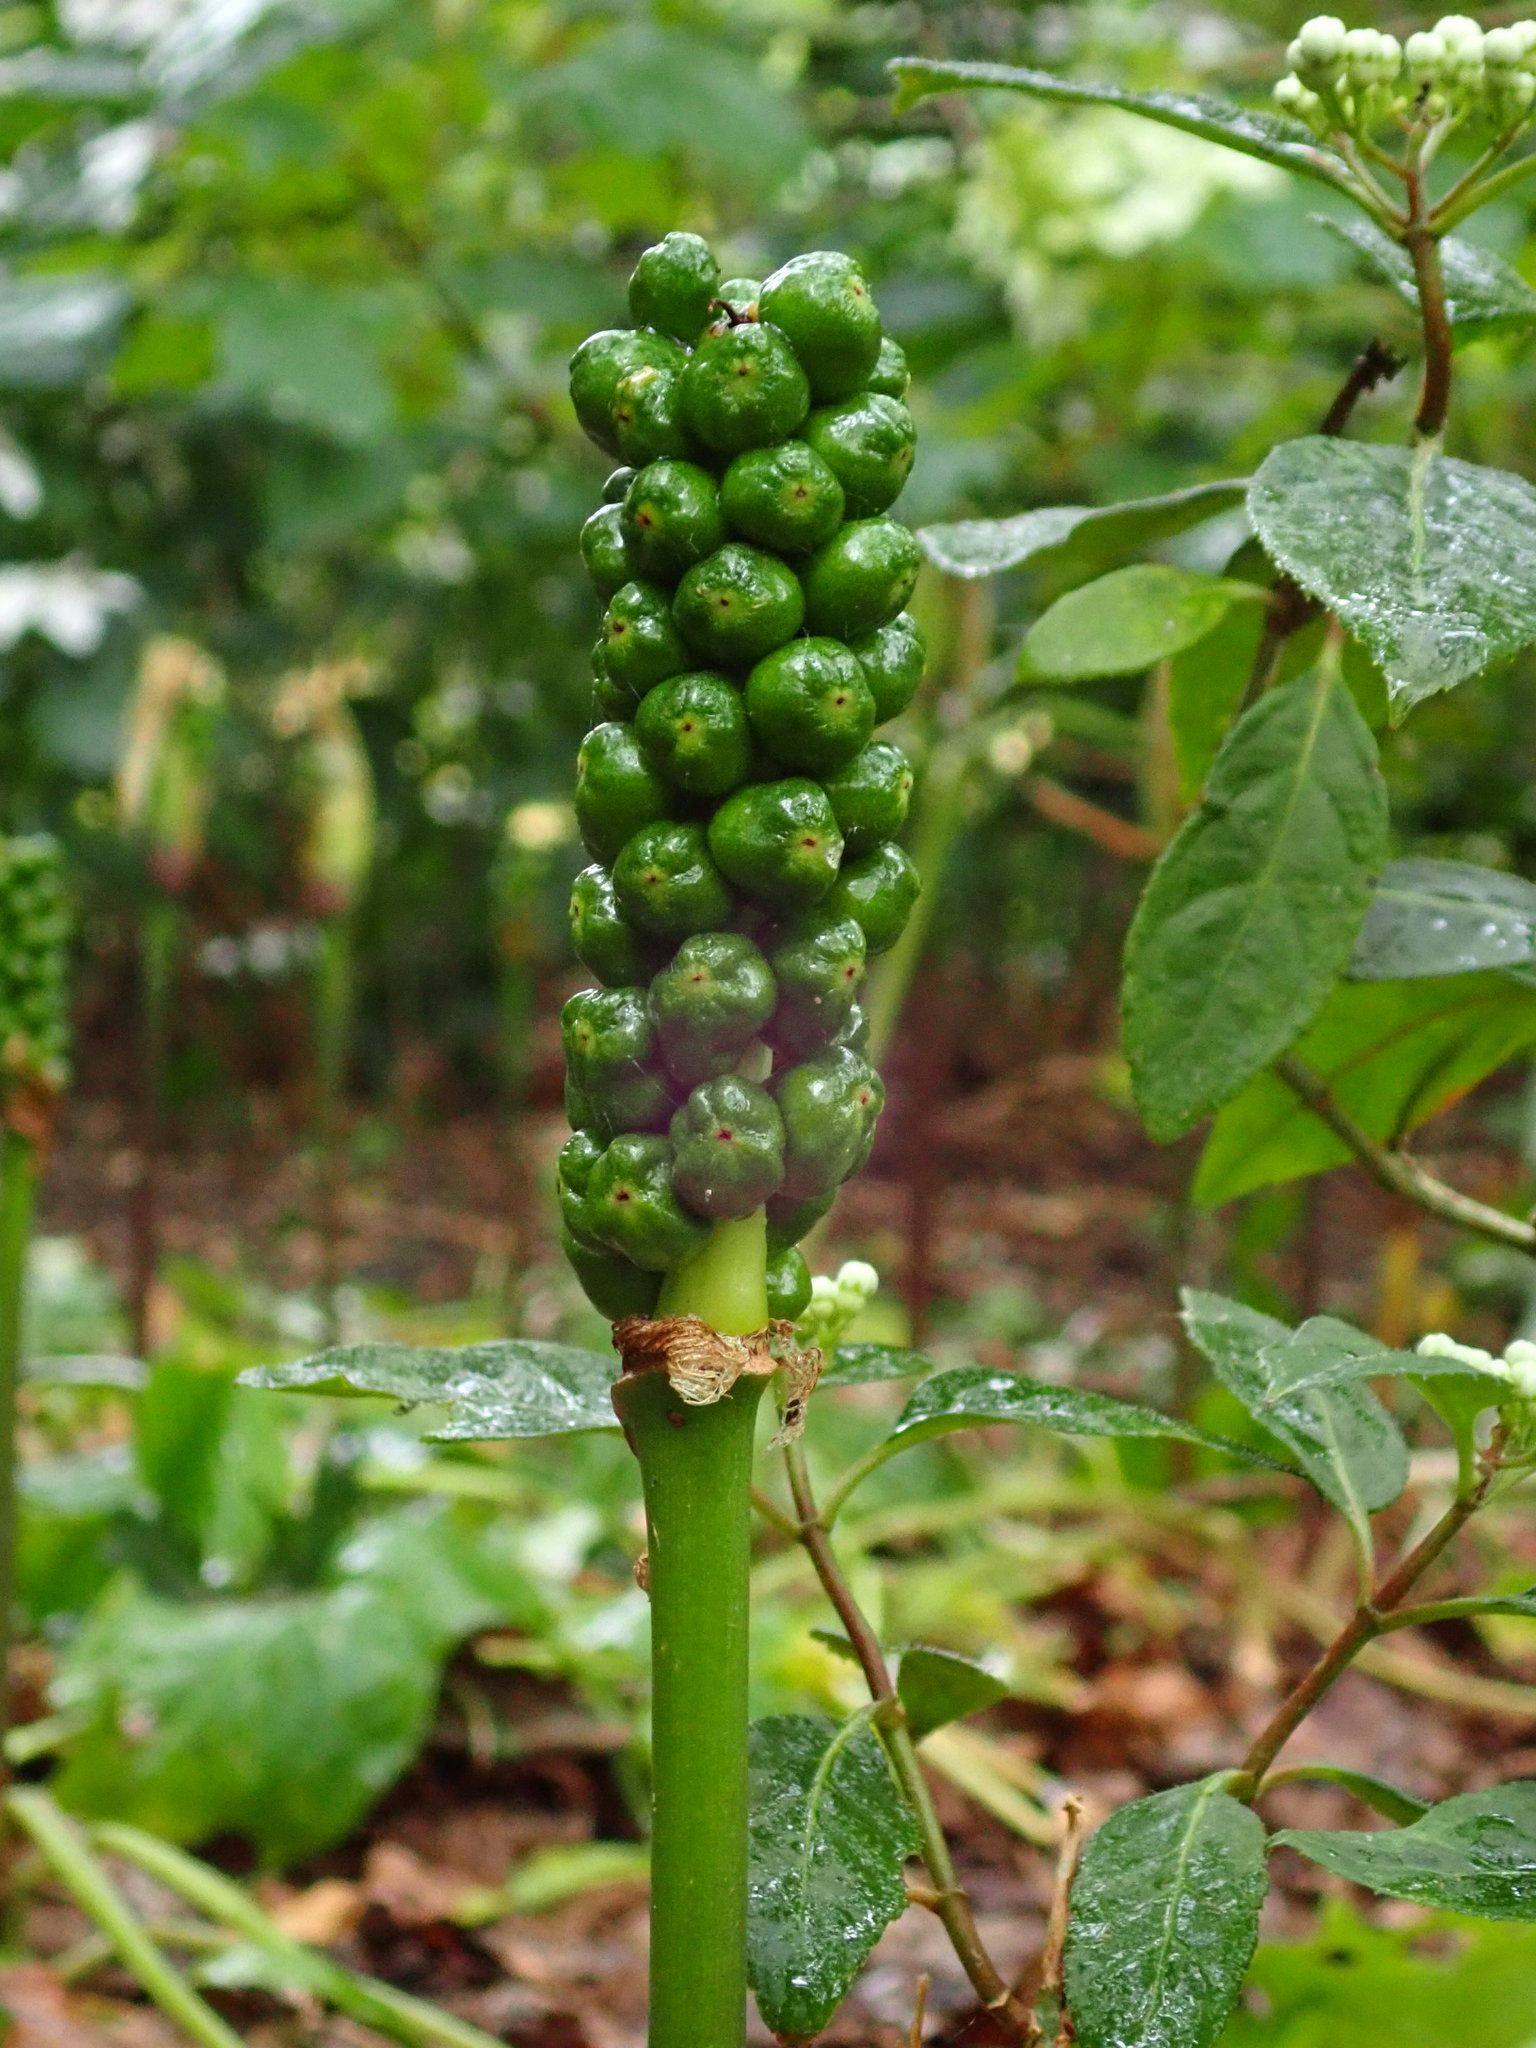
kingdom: Plantae
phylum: Tracheophyta
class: Liliopsida
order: Alismatales
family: Araceae
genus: Arum
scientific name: Arum maculatum
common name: Lords-and-ladies
